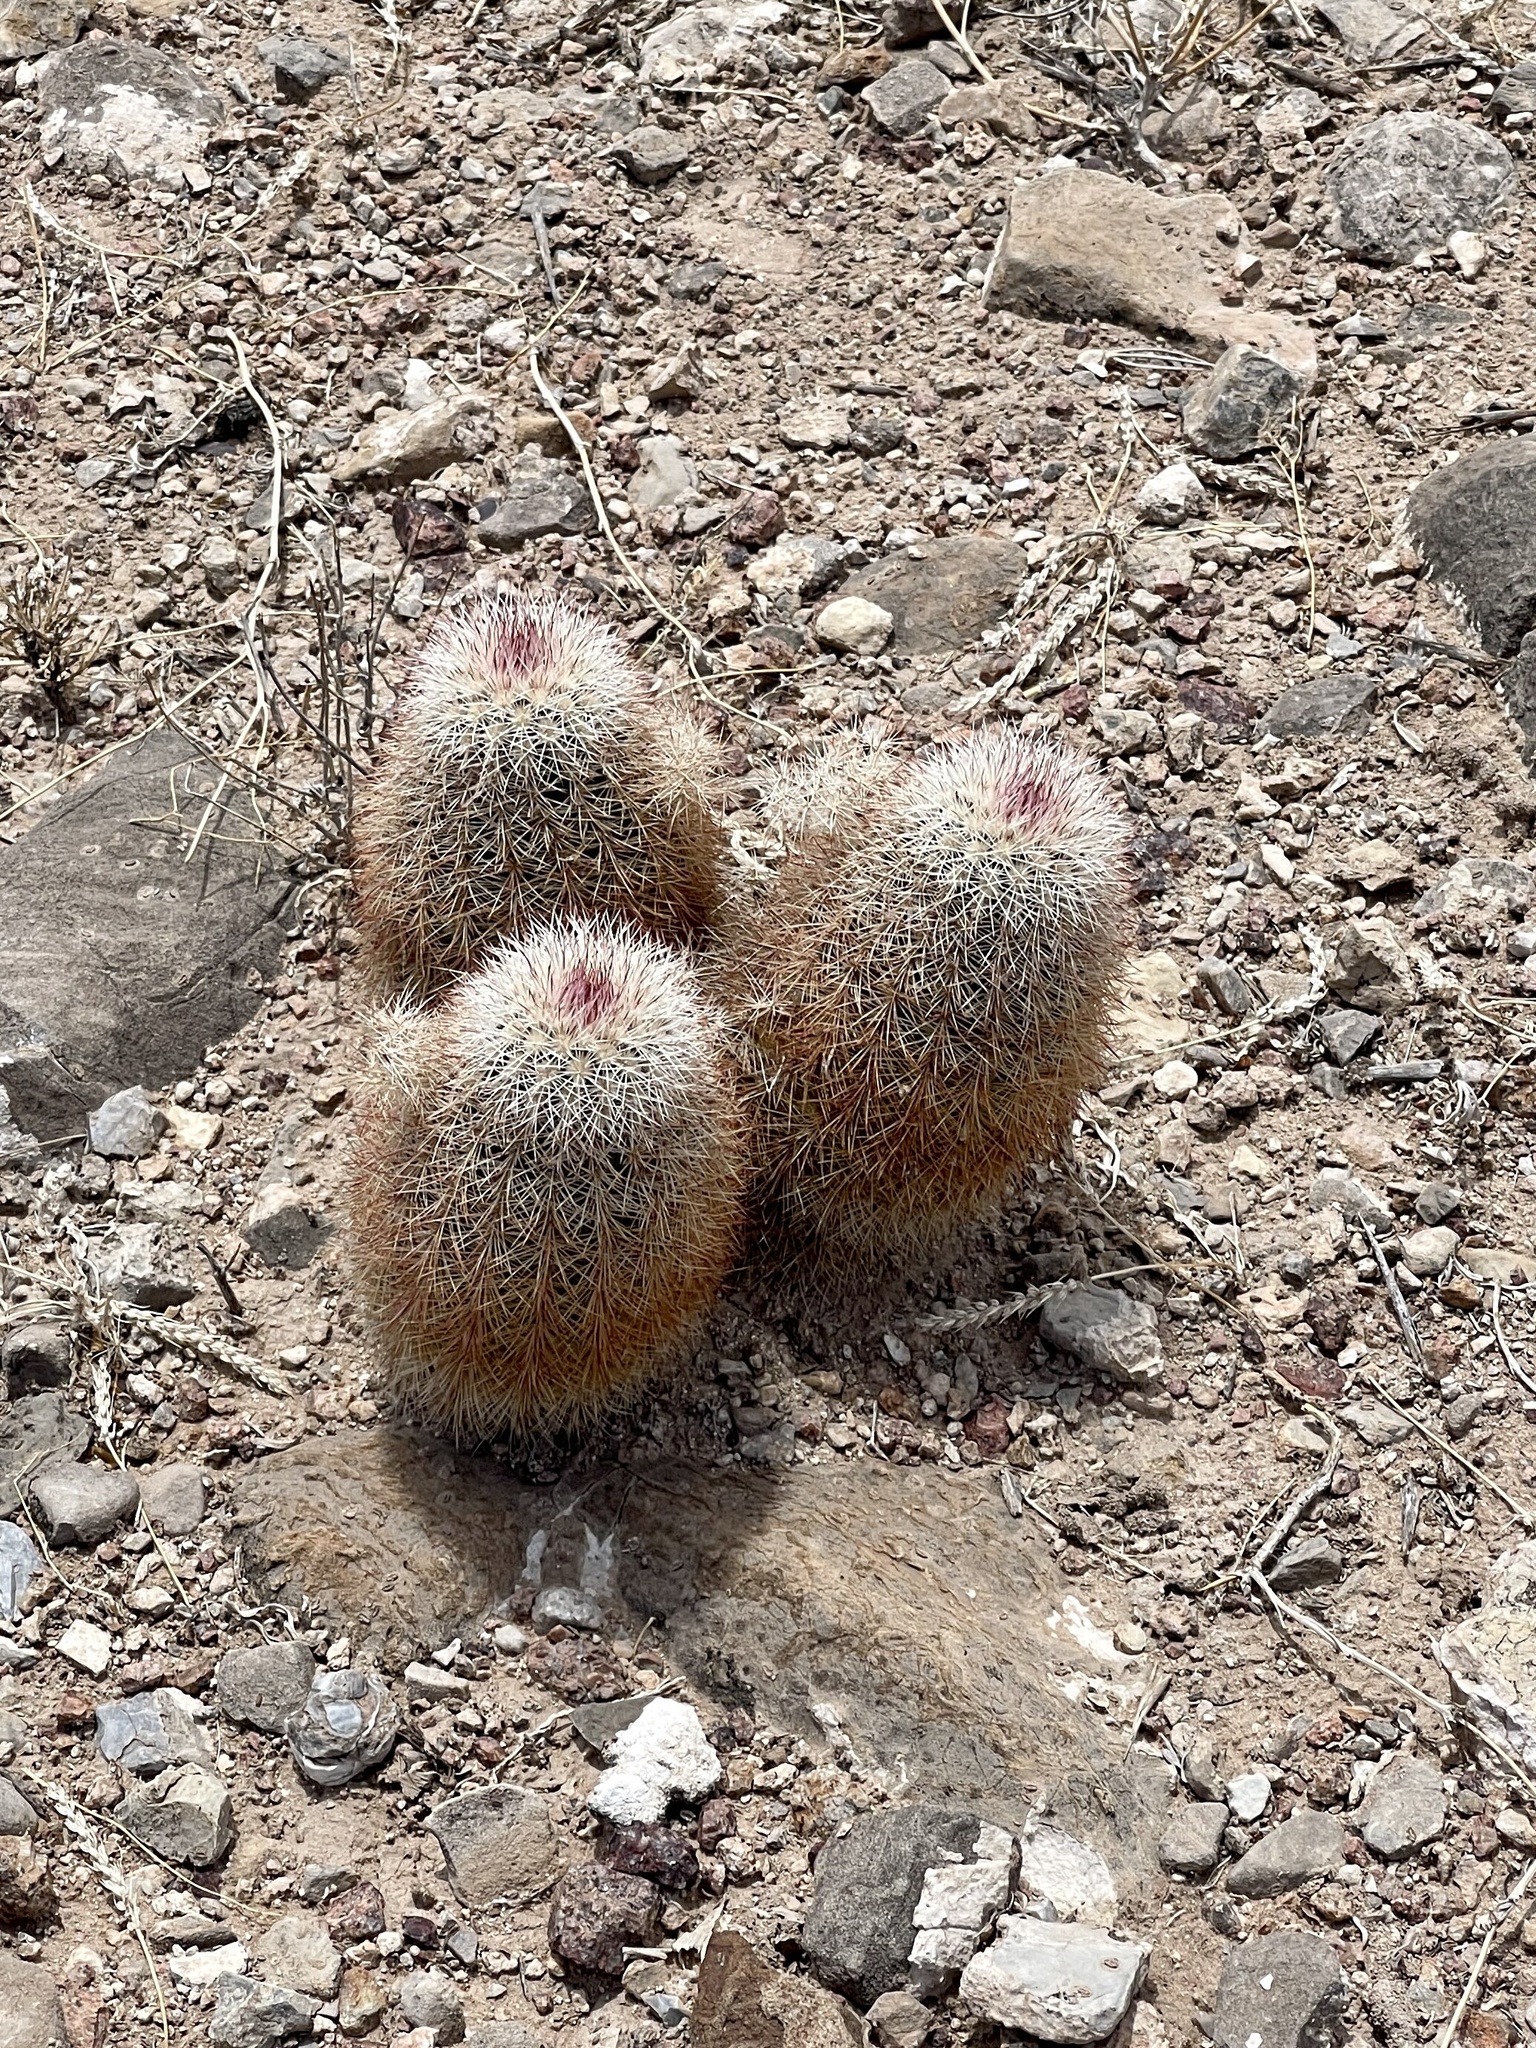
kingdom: Plantae
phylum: Tracheophyta
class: Magnoliopsida
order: Caryophyllales
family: Cactaceae
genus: Echinocereus
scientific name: Echinocereus dasyacanthus
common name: Spiny hedgehog cactus
